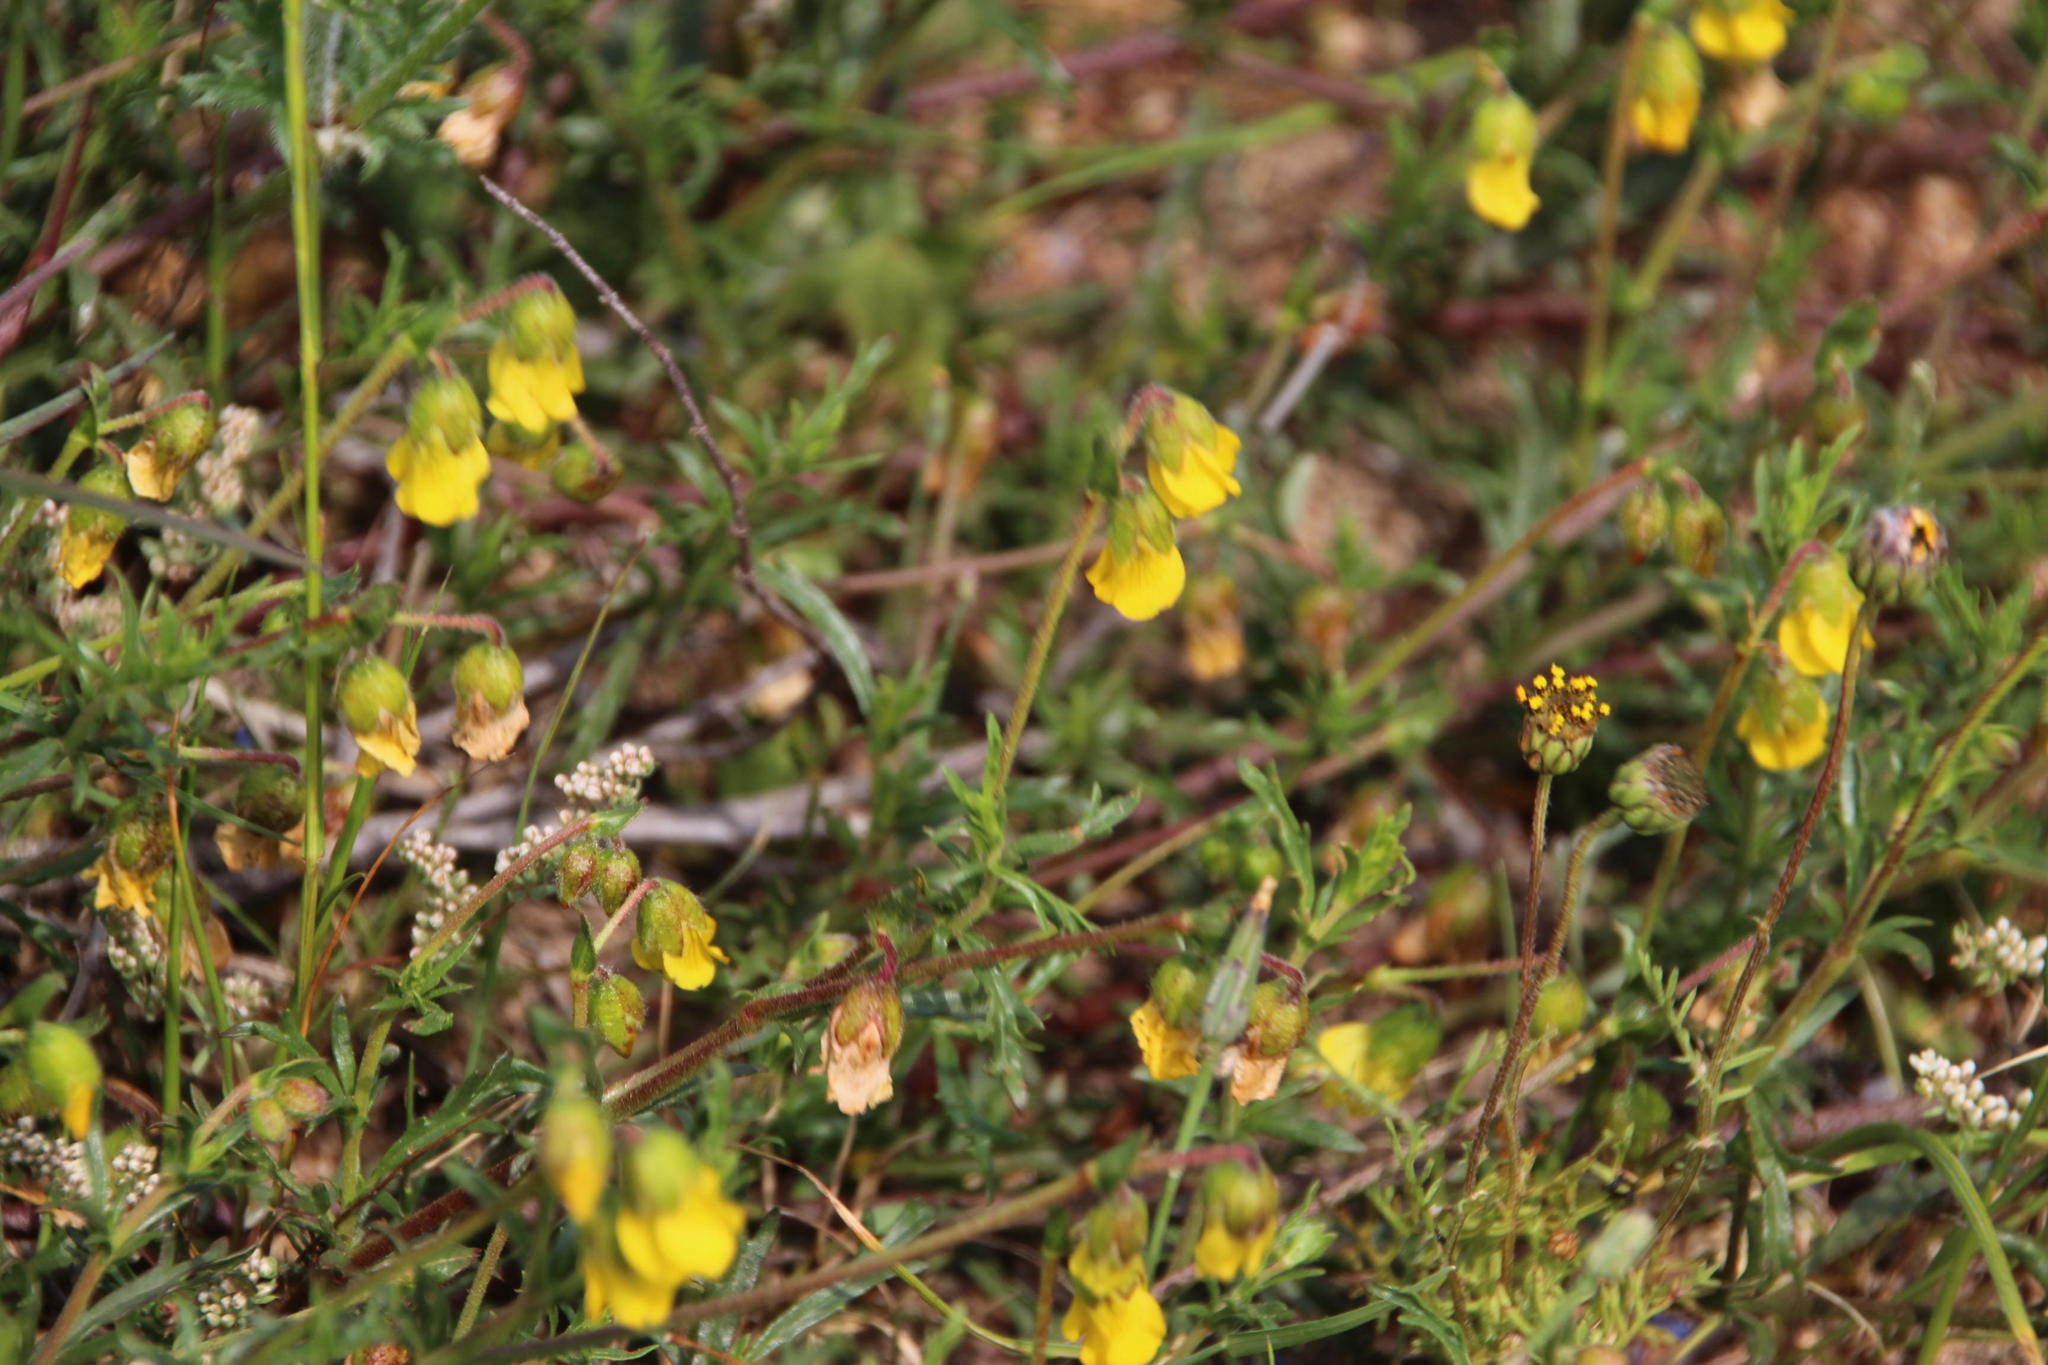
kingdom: Plantae
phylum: Tracheophyta
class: Magnoliopsida
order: Malvales
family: Malvaceae
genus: Hermannia
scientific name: Hermannia pinnata
